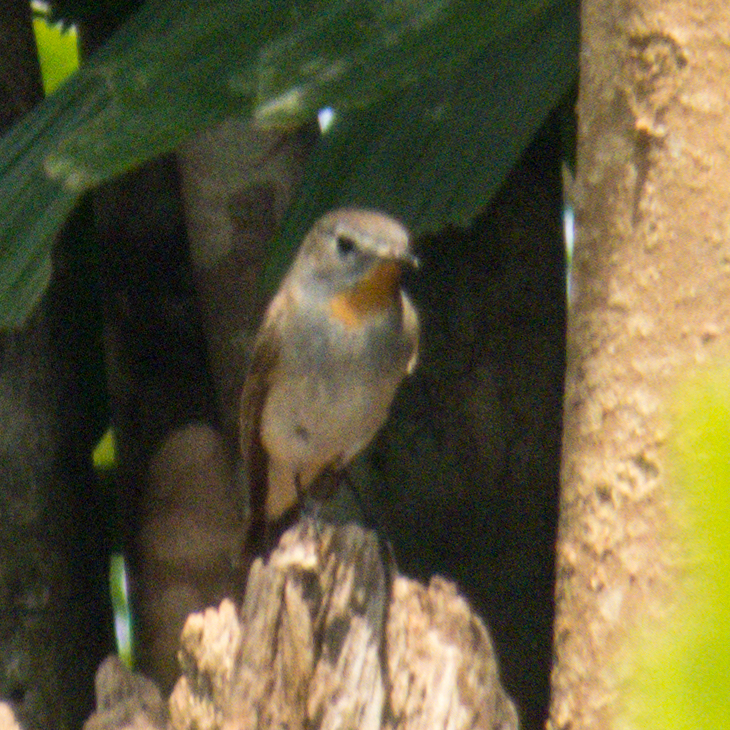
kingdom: Animalia
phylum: Chordata
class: Aves
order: Passeriformes
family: Muscicapidae
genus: Ficedula
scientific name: Ficedula albicilla
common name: Taiga flycatcher
